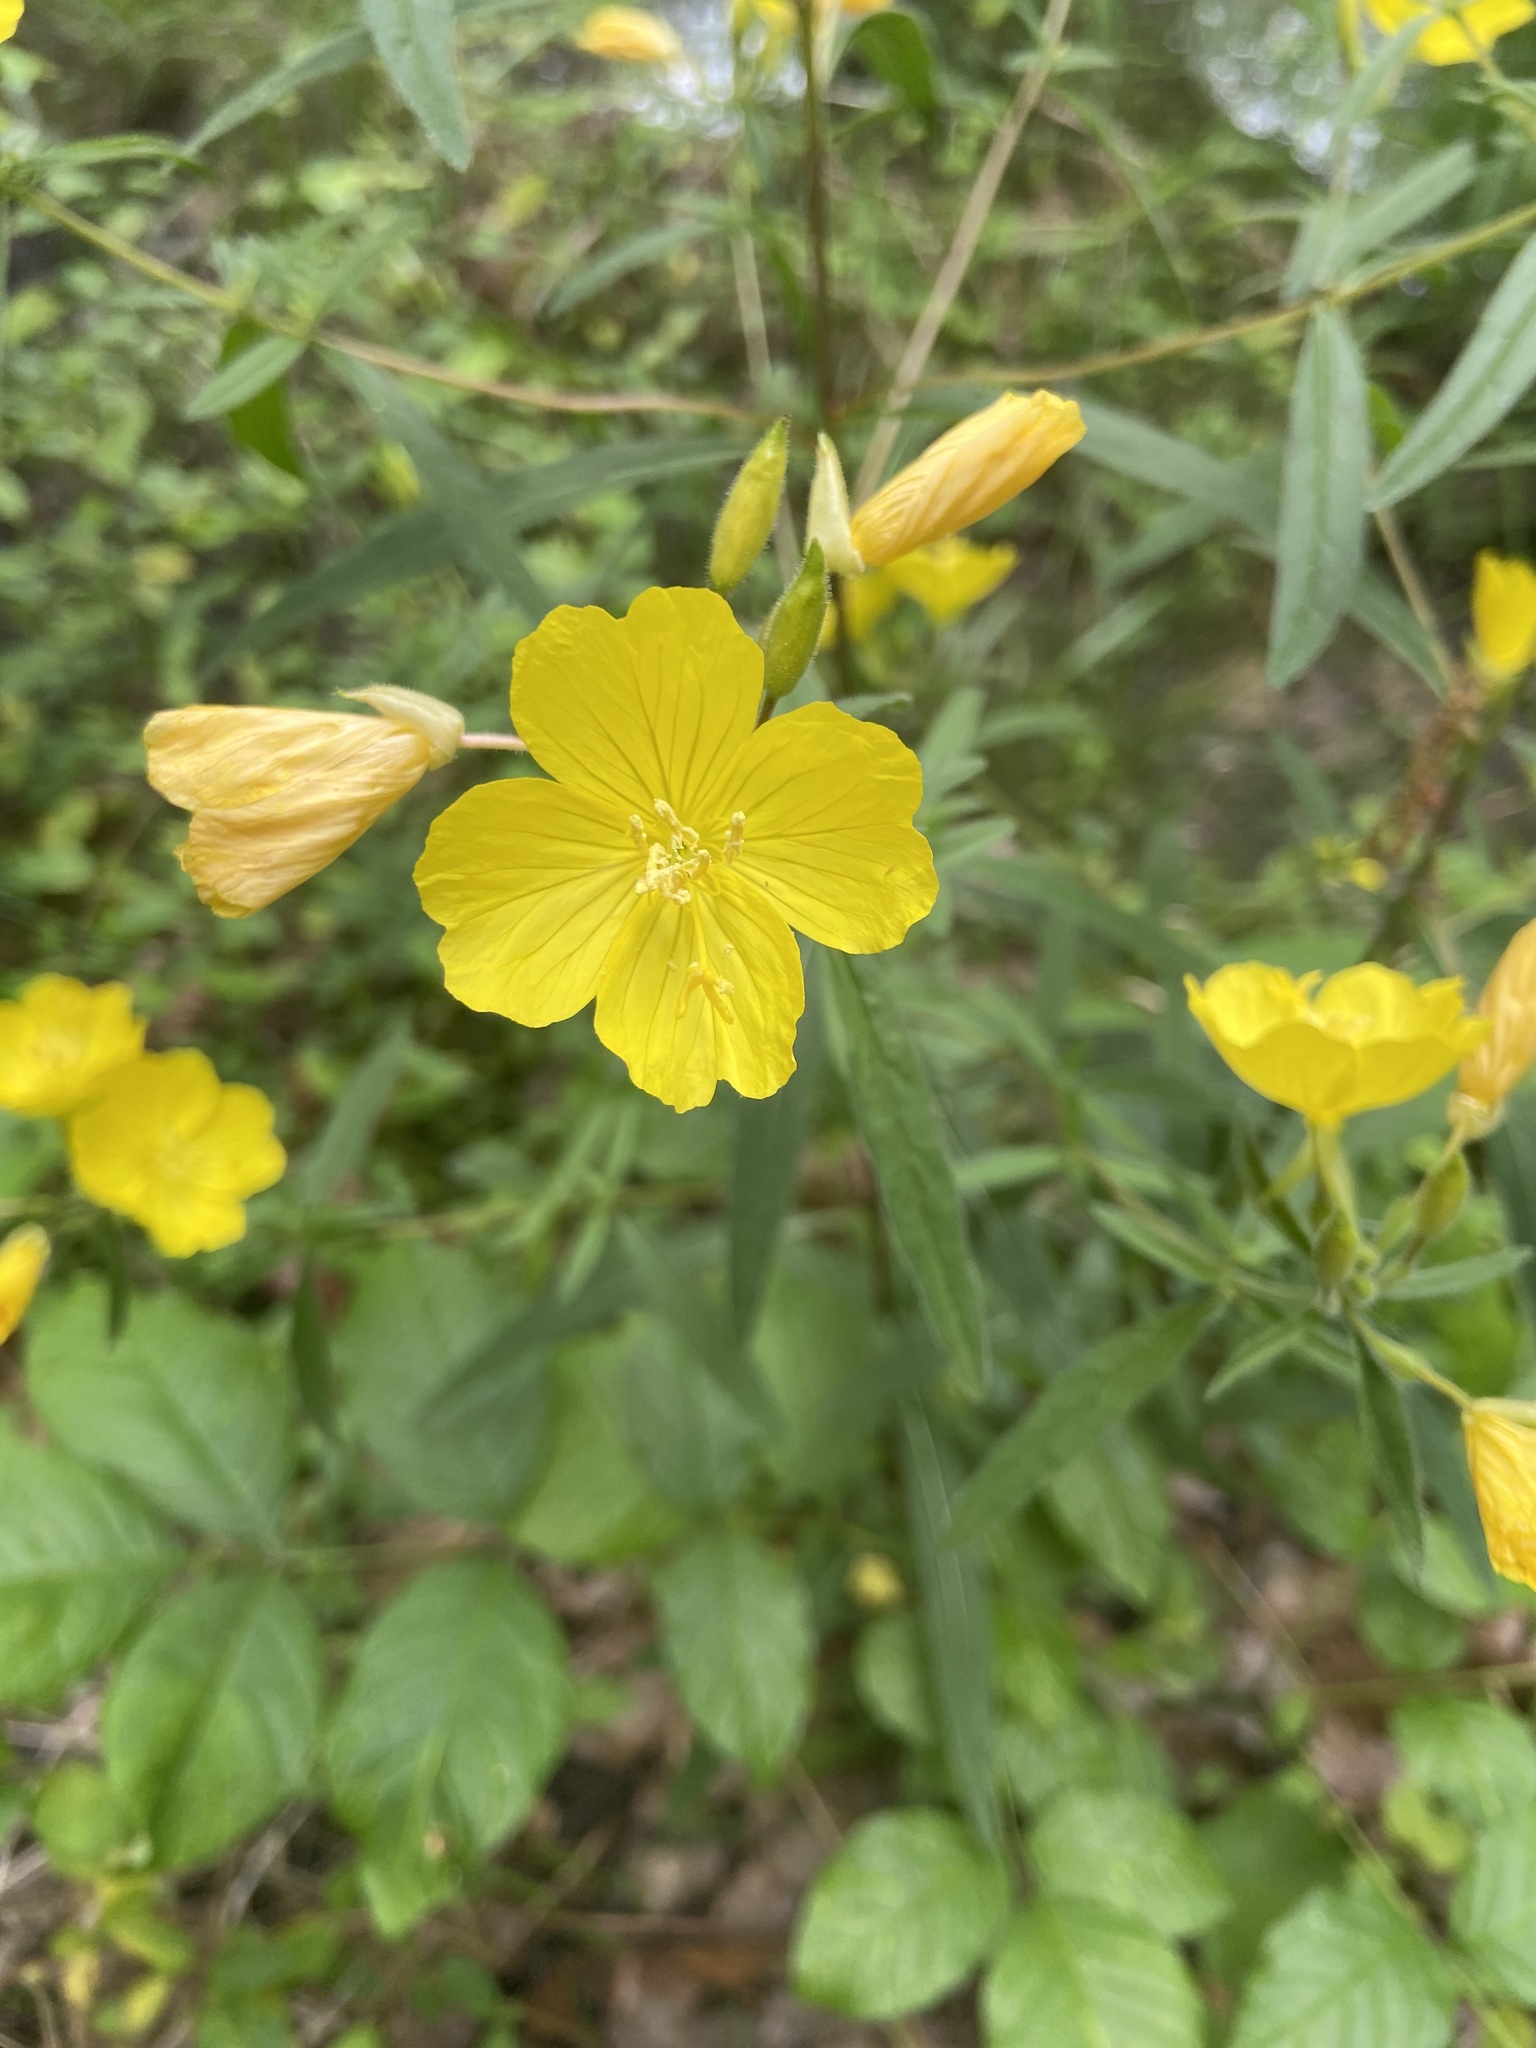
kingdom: Plantae
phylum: Tracheophyta
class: Magnoliopsida
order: Myrtales
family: Onagraceae
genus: Oenothera
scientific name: Oenothera fruticosa
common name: Southern sundrops
